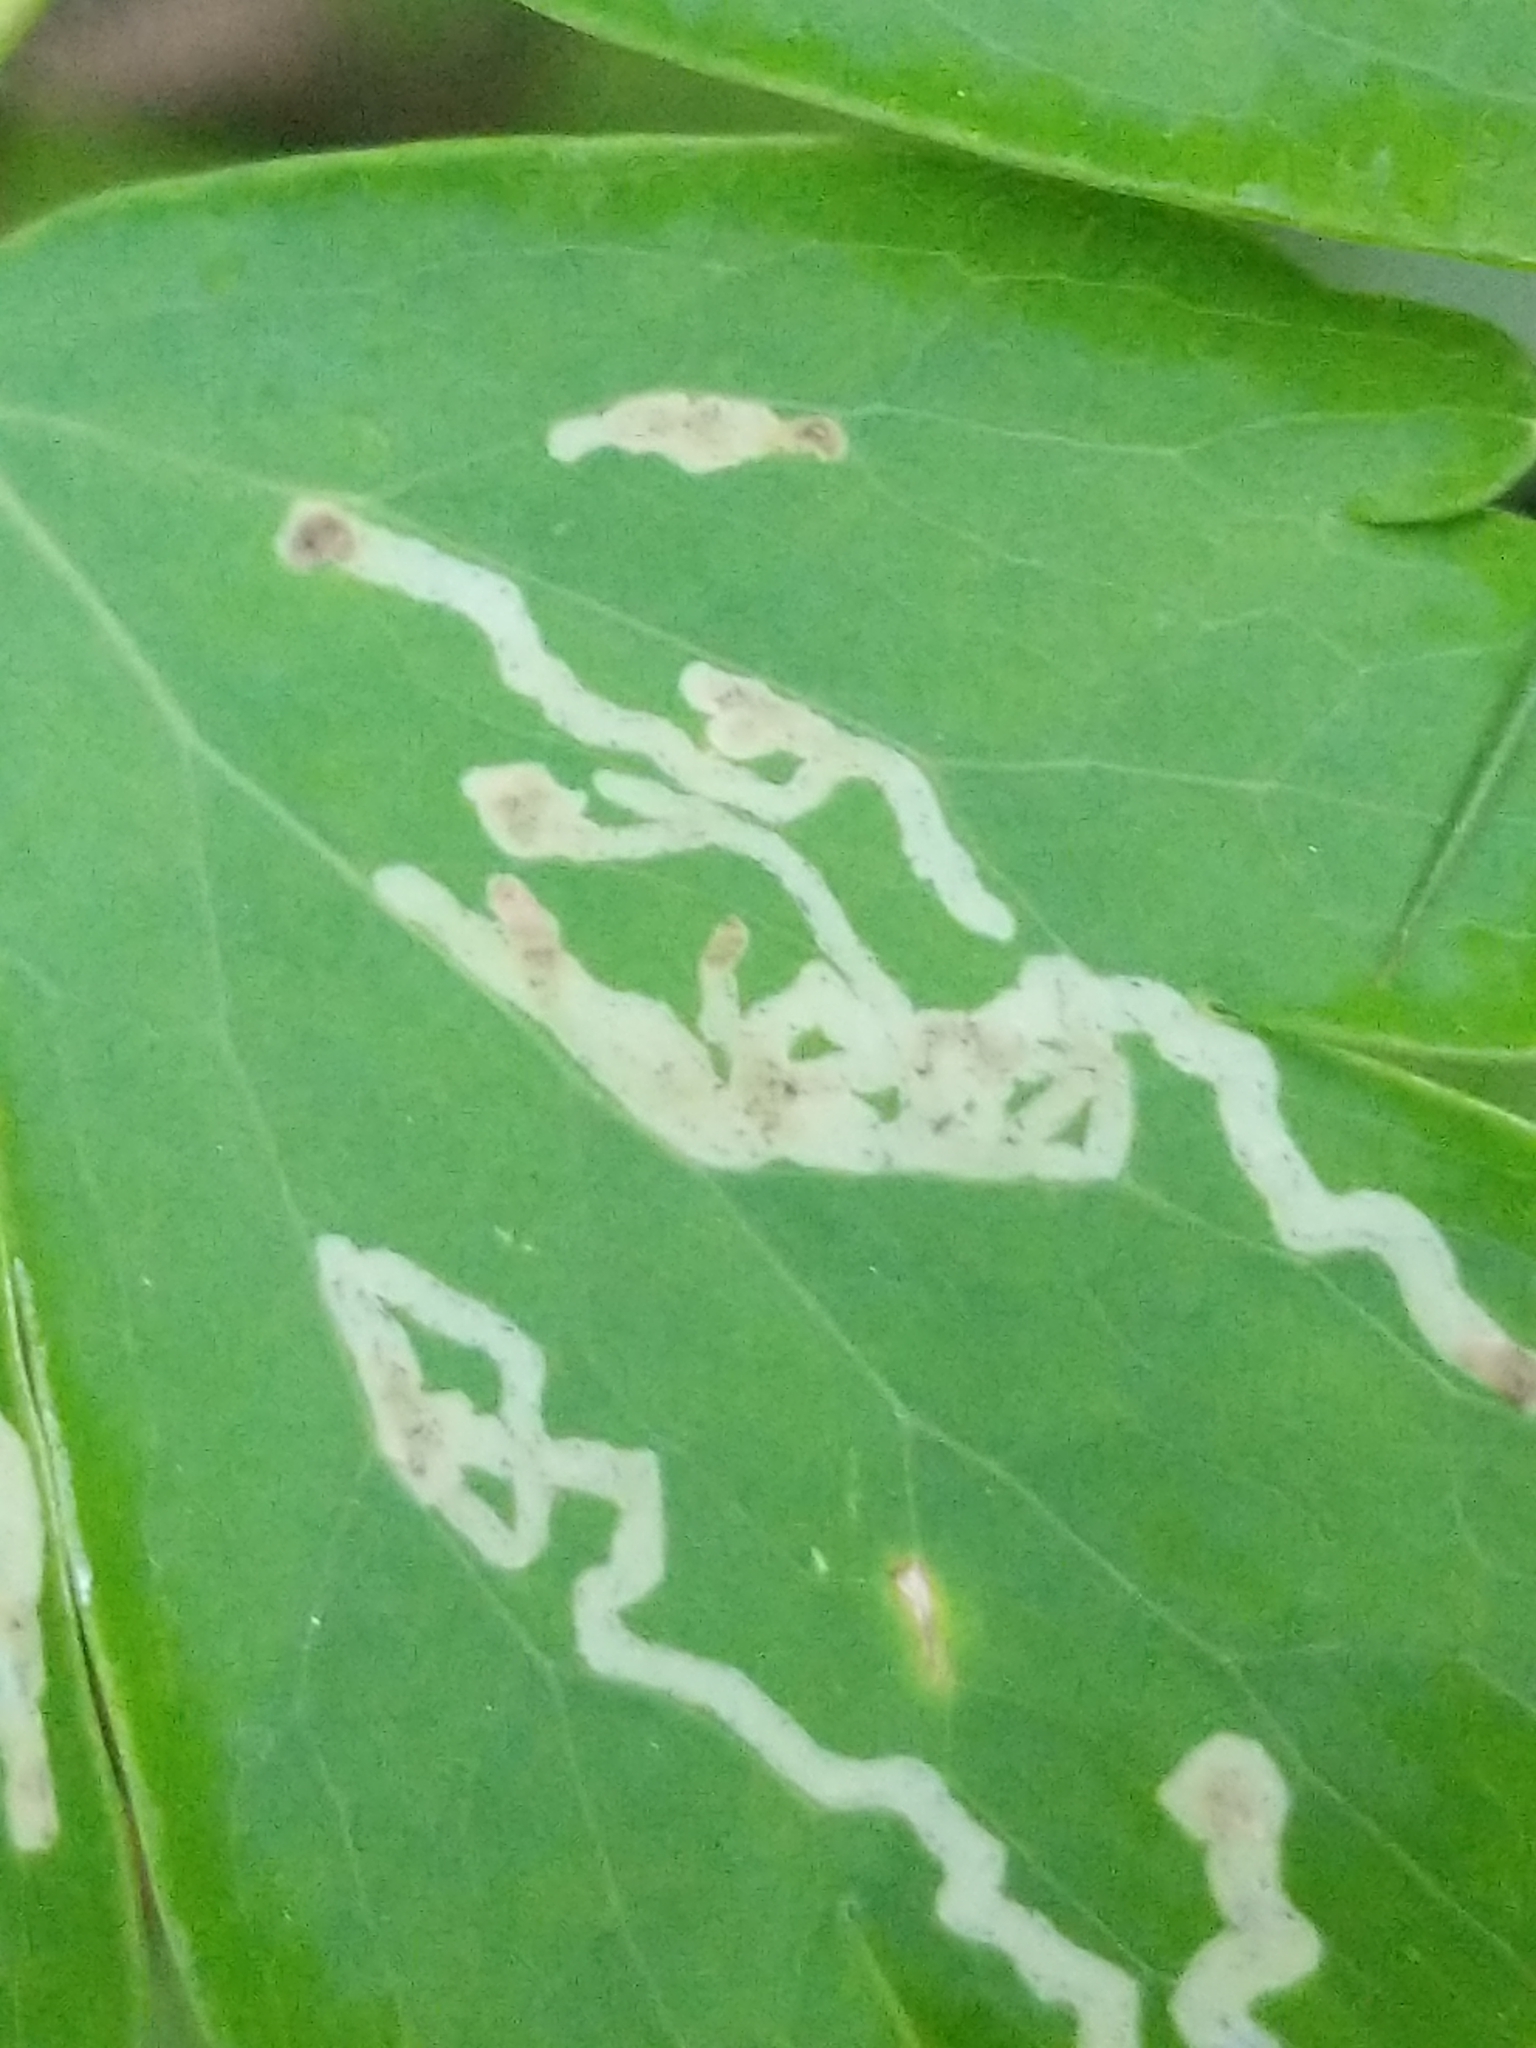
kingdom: Animalia
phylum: Arthropoda
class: Insecta
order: Diptera
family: Agromyzidae
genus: Phytomyza
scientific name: Phytomyza
